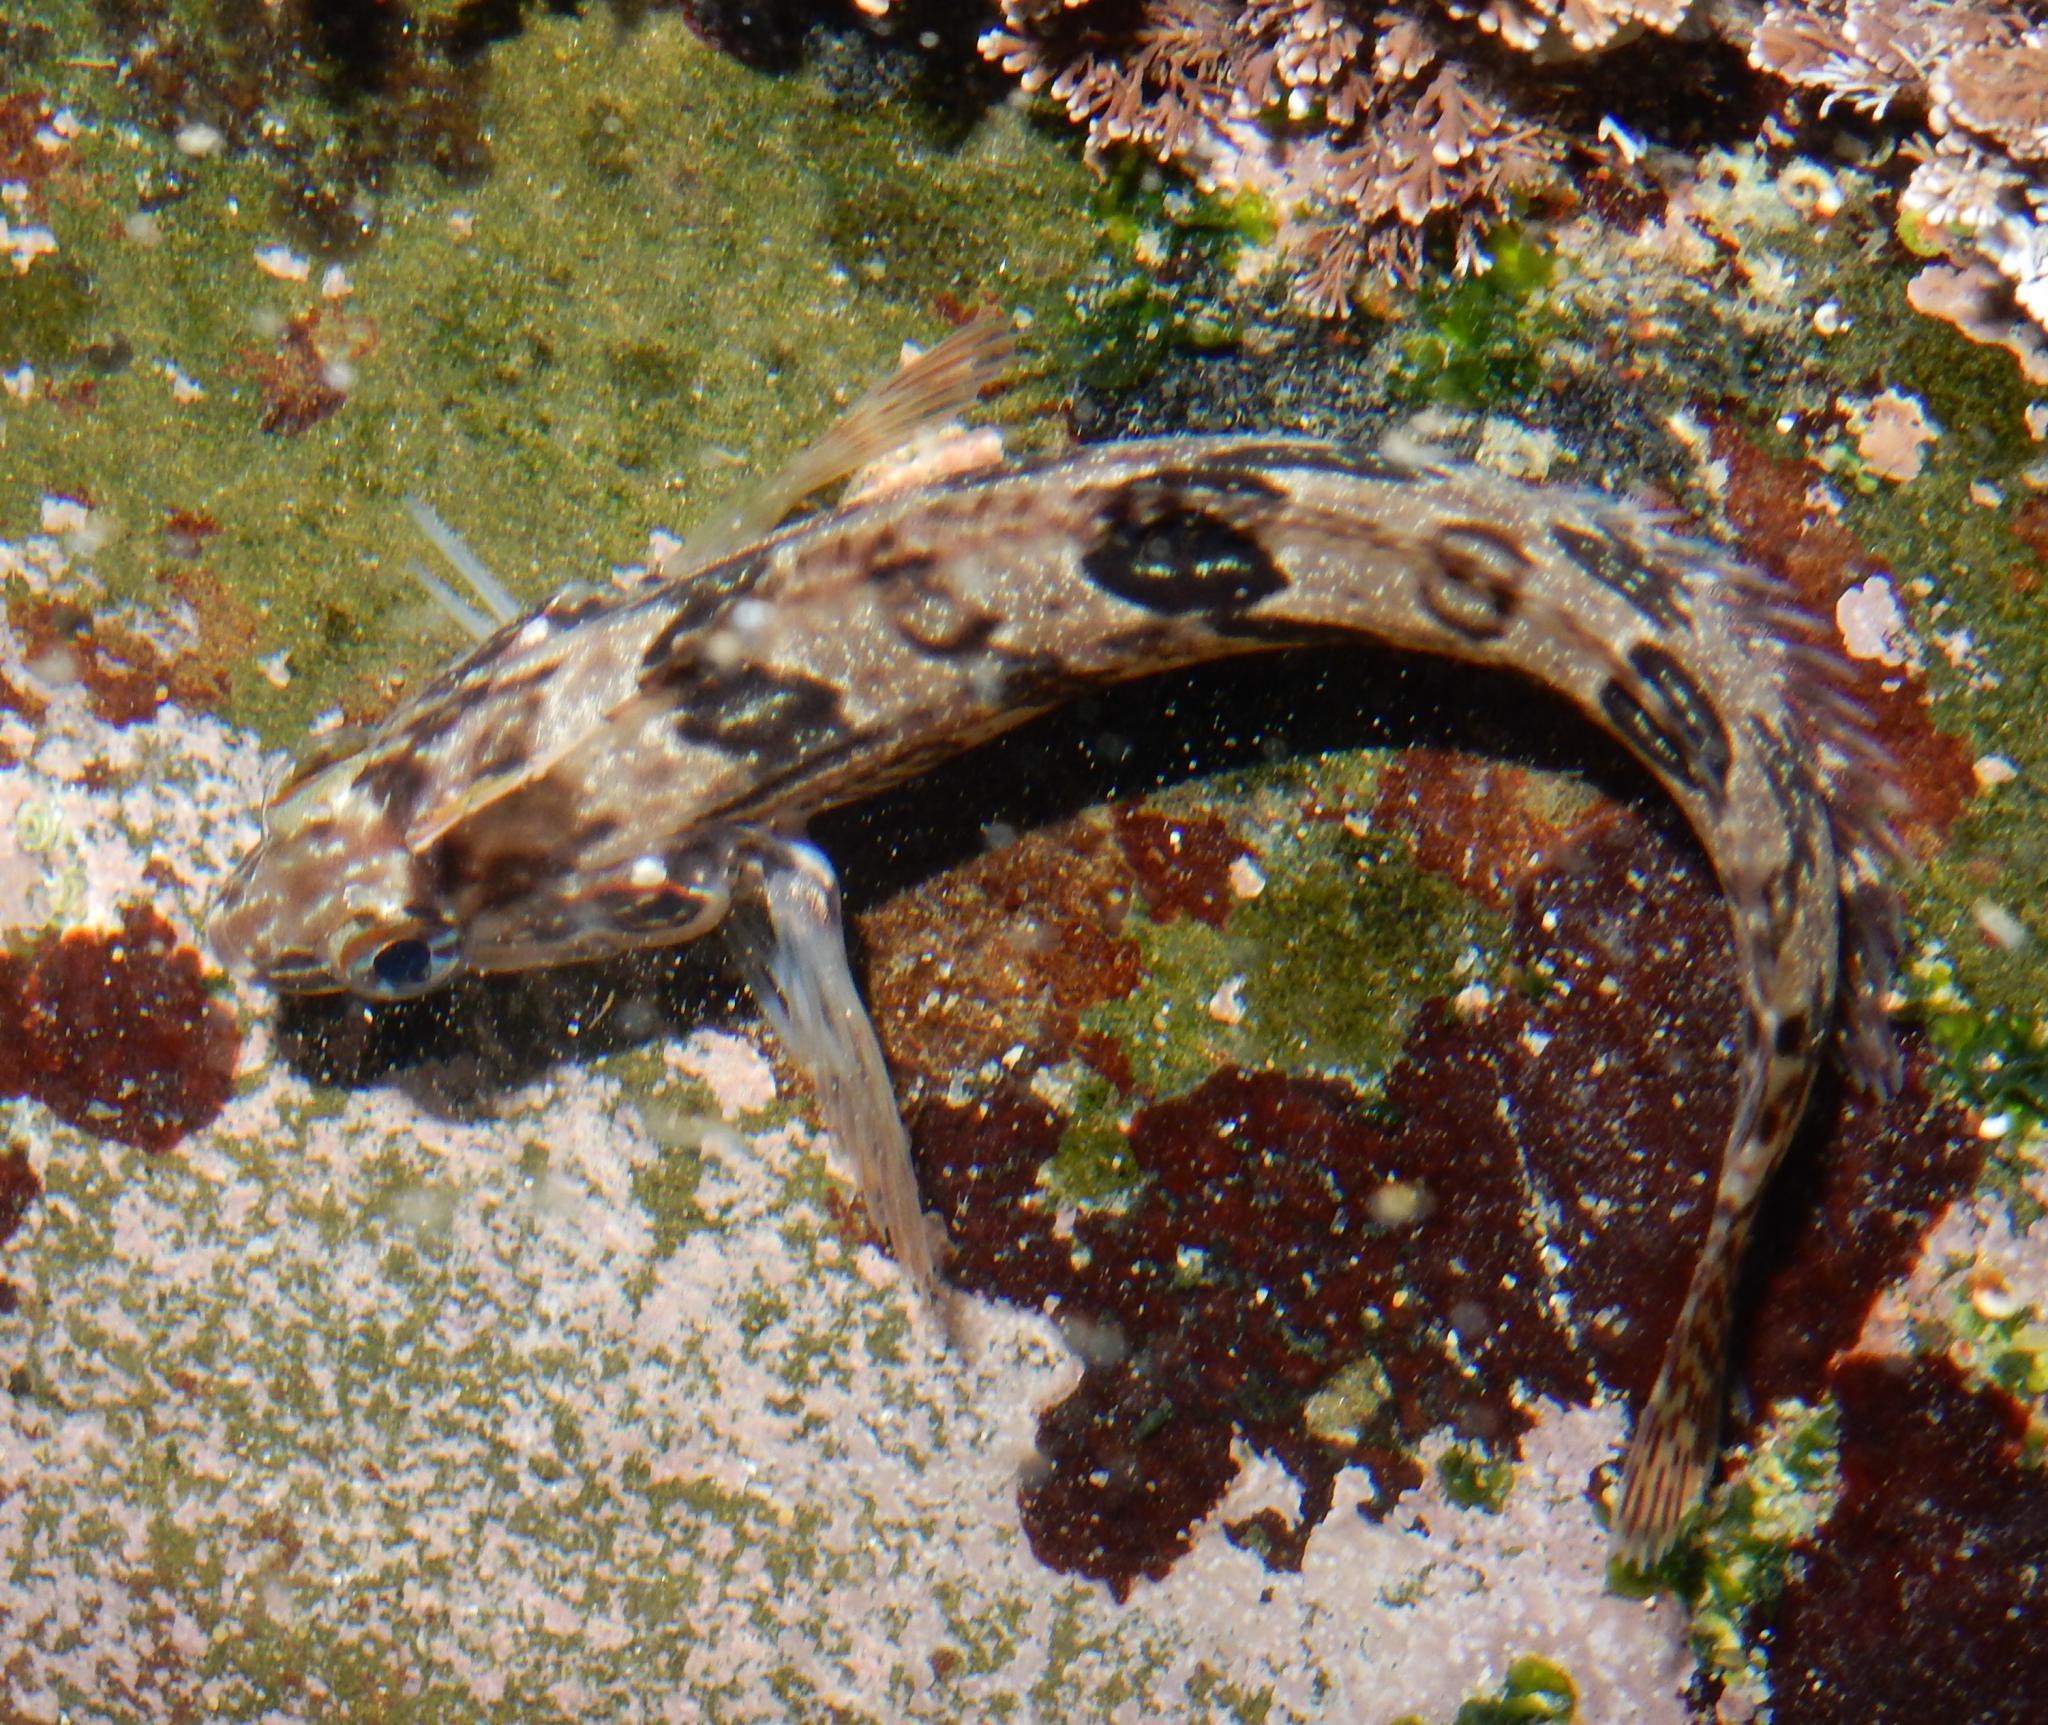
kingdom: Animalia
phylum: Chordata
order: Perciformes
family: Clinidae
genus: Clinus
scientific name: Clinus superciliosus
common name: Super klipfish
